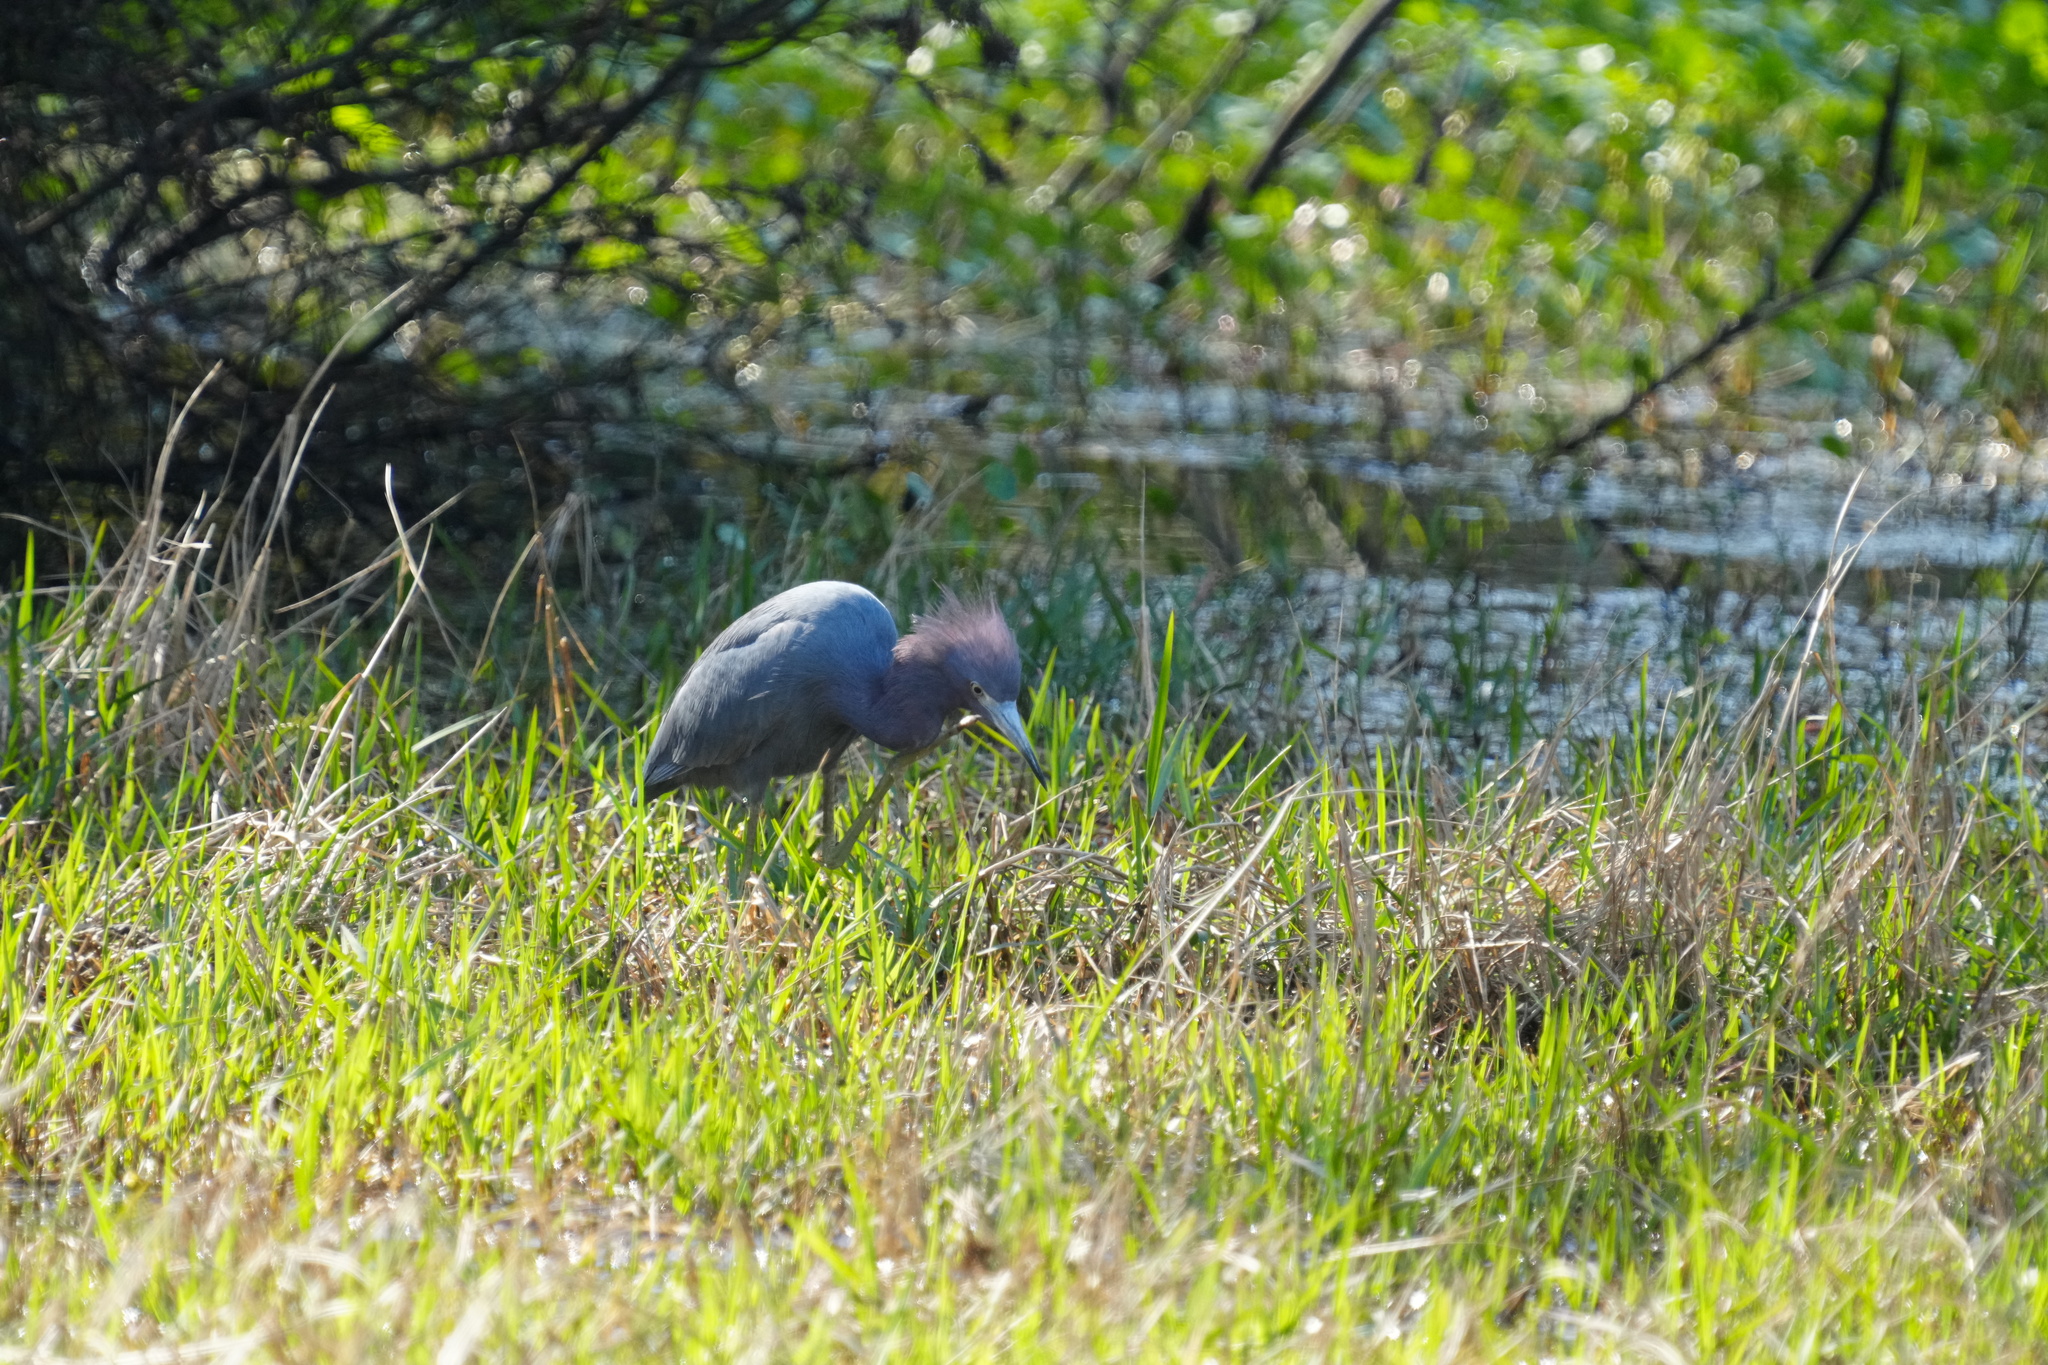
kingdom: Animalia
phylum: Chordata
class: Aves
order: Pelecaniformes
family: Ardeidae
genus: Egretta
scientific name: Egretta caerulea
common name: Little blue heron
